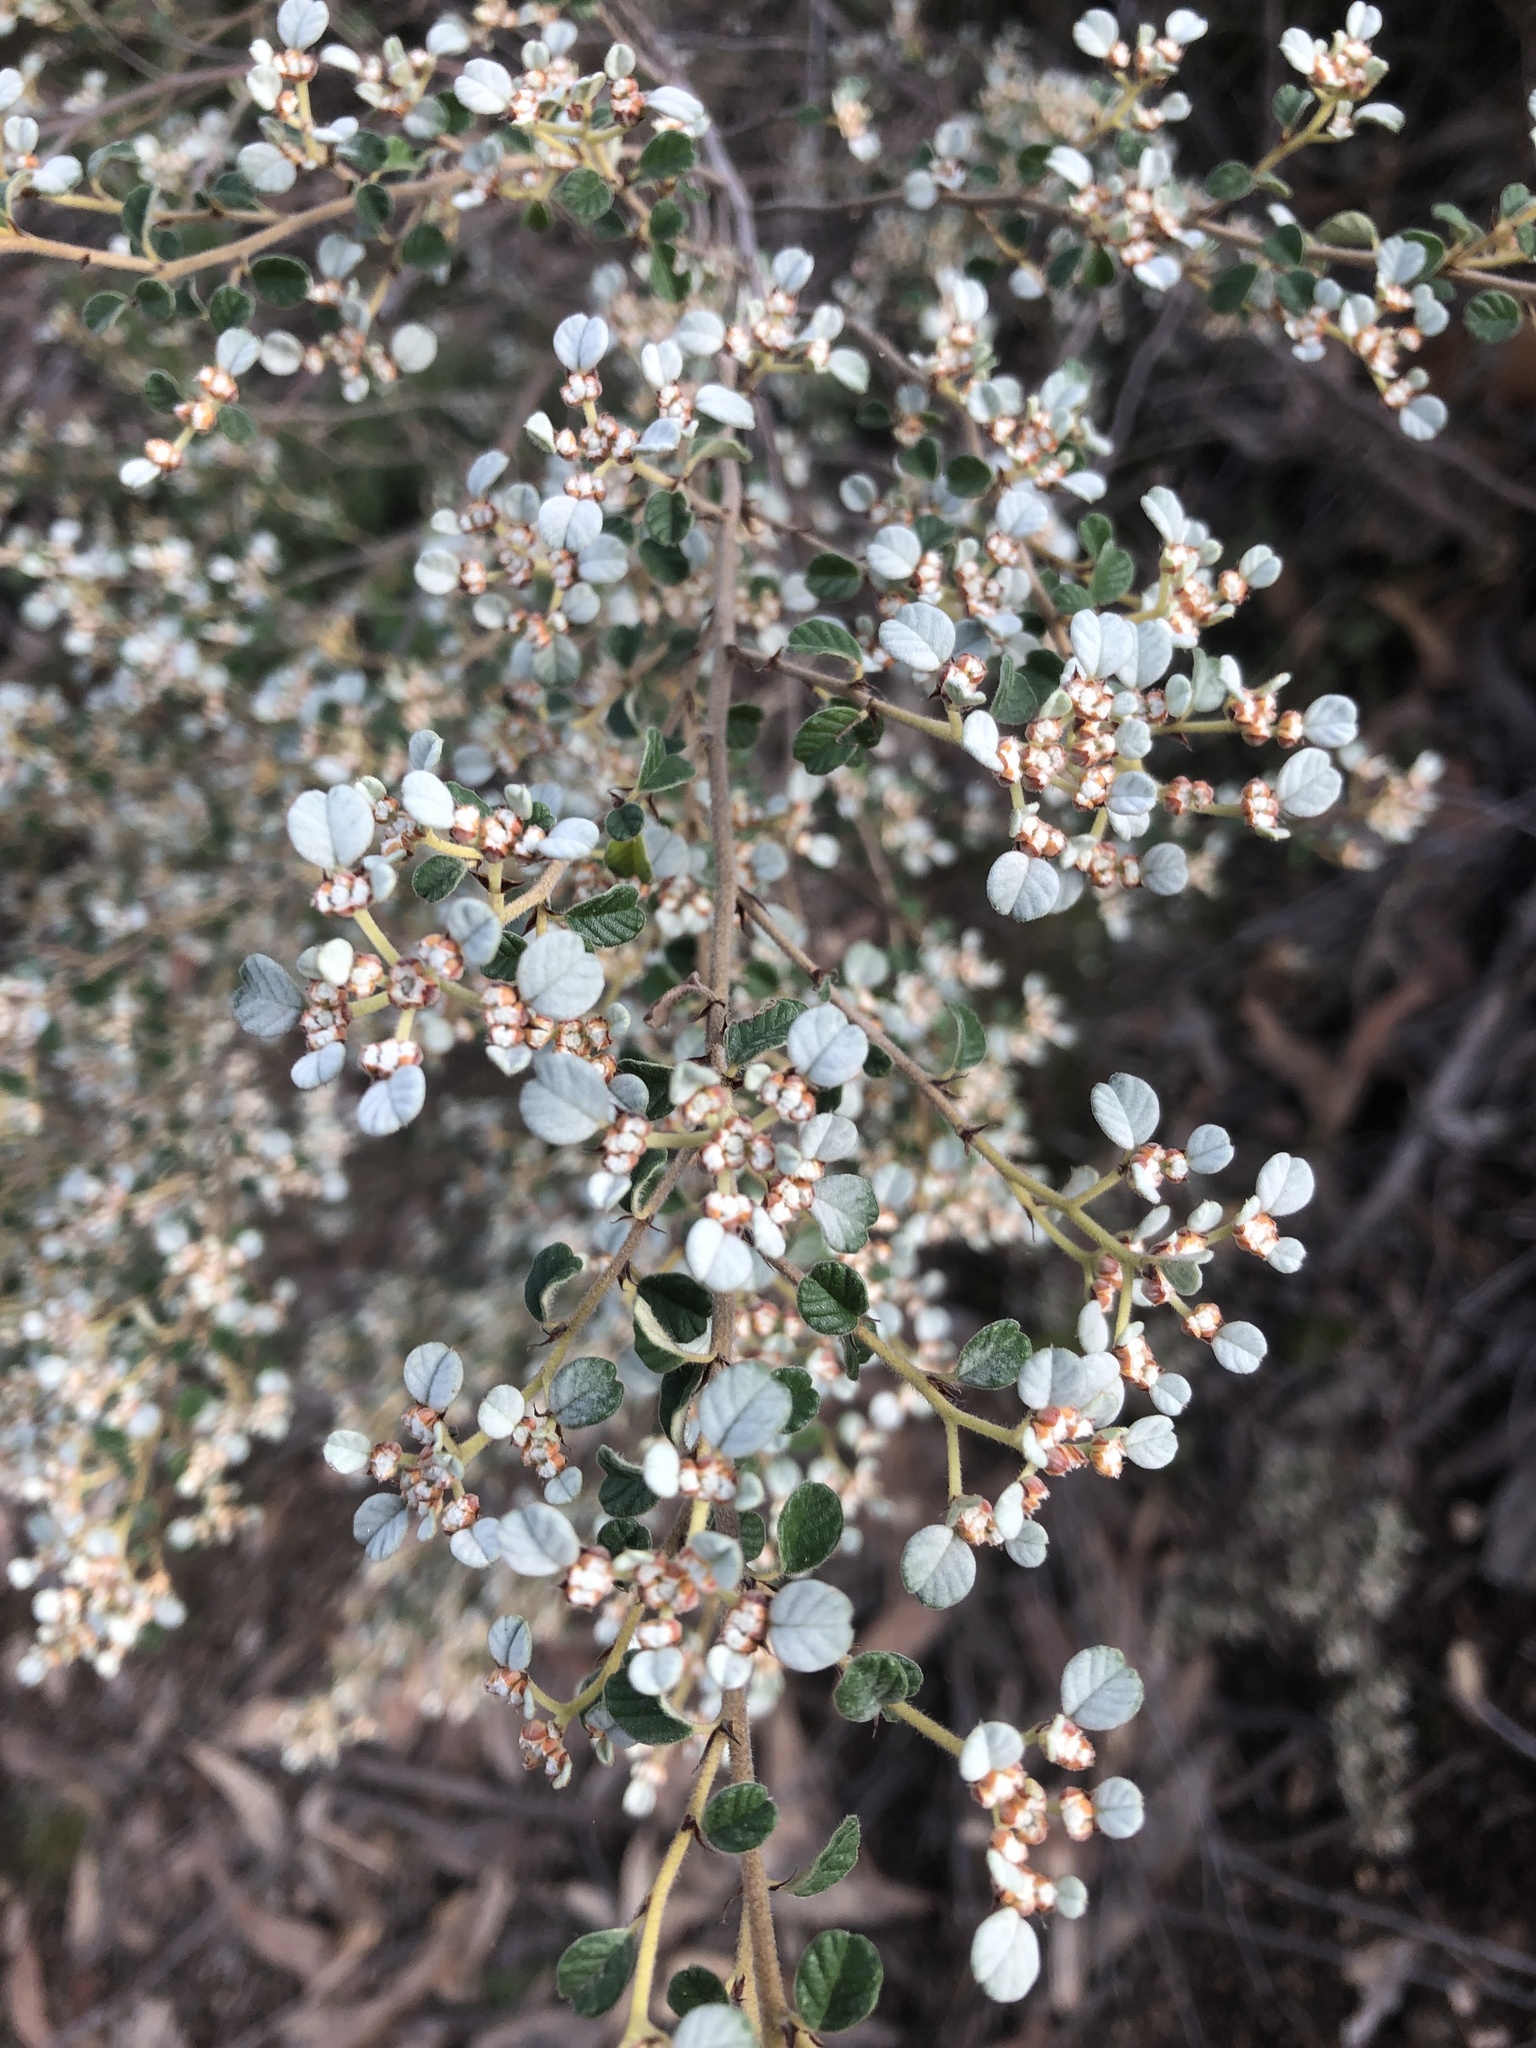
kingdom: Plantae
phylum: Tracheophyta
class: Magnoliopsida
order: Rosales
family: Rhamnaceae
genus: Spyridium
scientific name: Spyridium parvifolium
